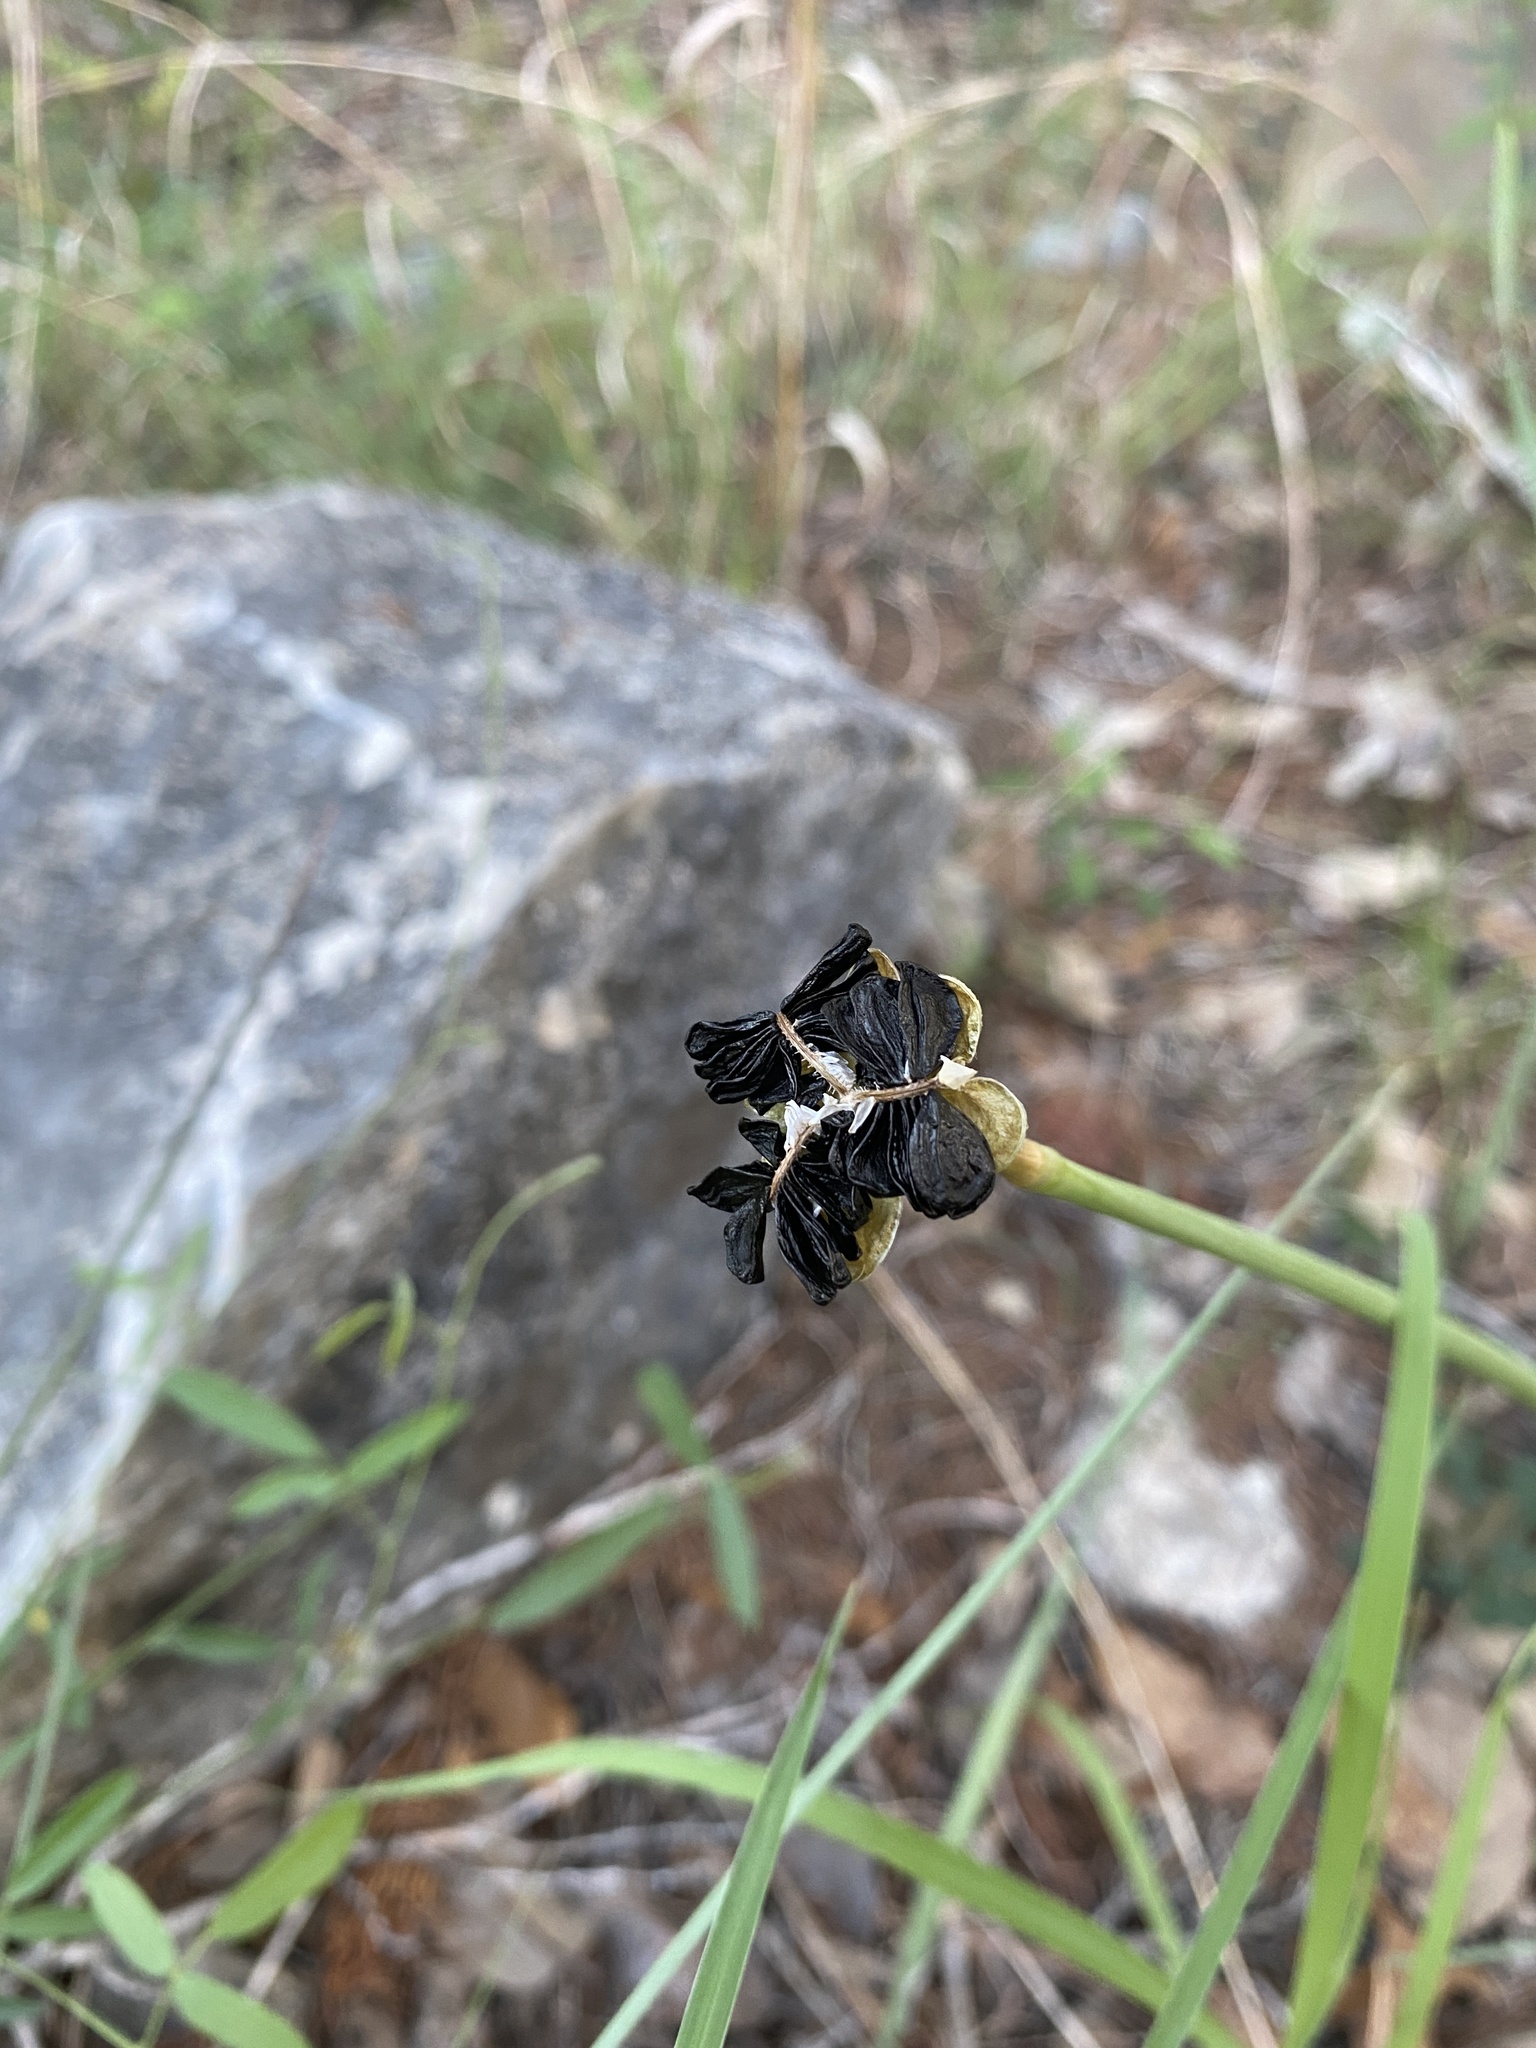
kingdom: Plantae
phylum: Tracheophyta
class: Liliopsida
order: Asparagales
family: Amaryllidaceae
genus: Zephyranthes
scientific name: Zephyranthes
